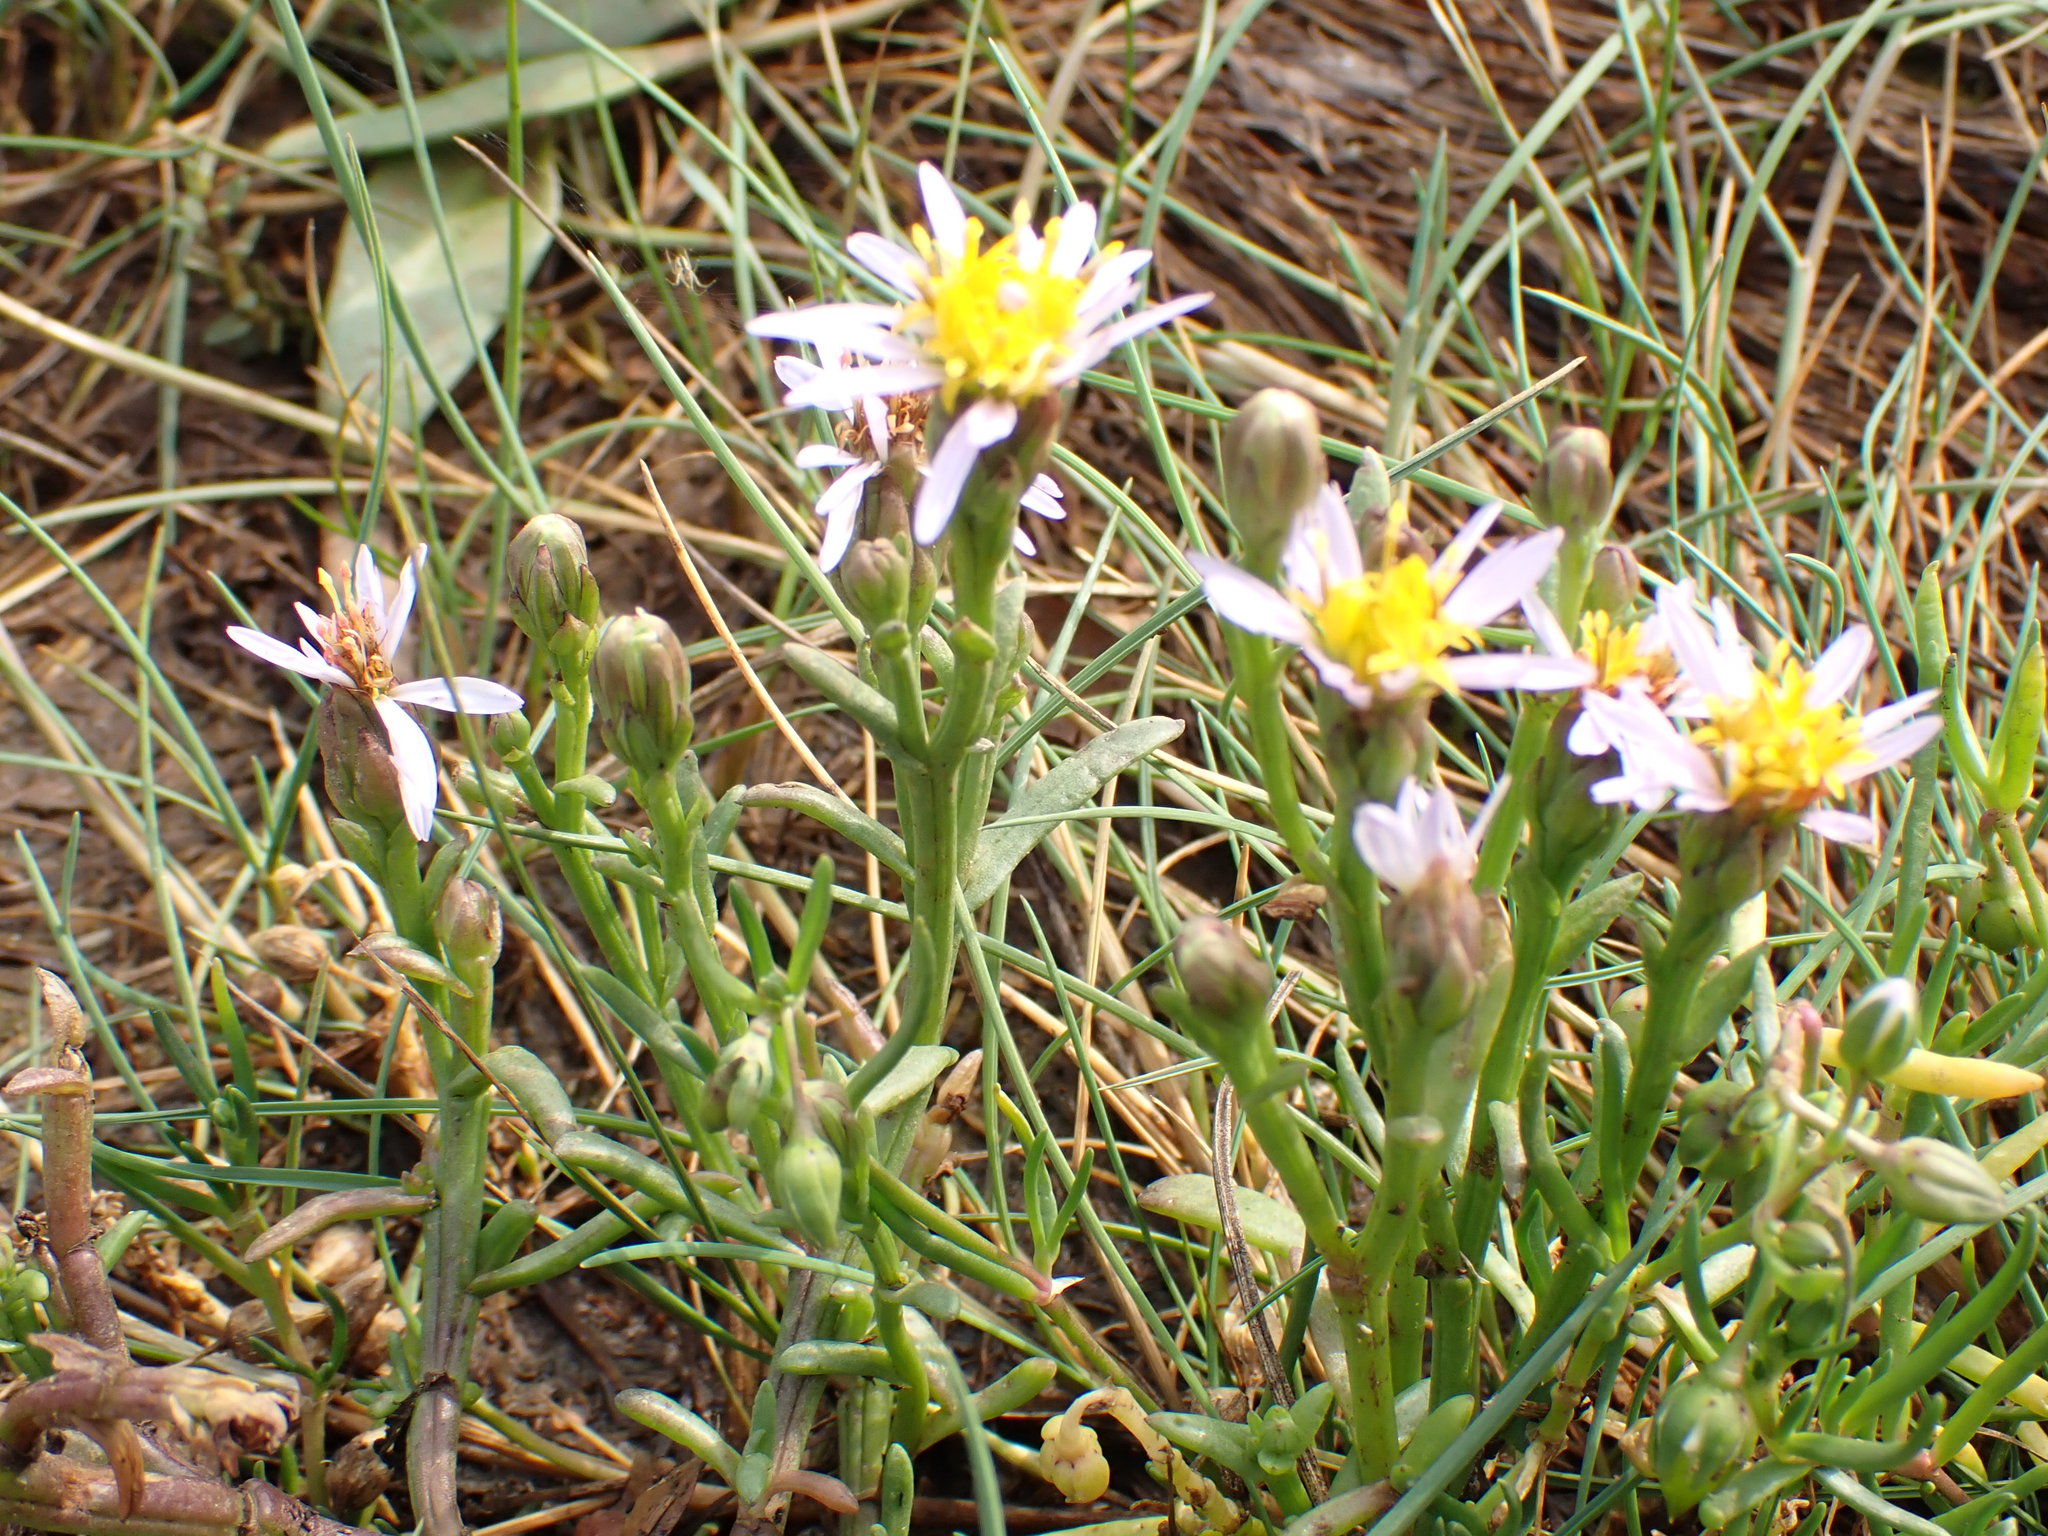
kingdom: Plantae
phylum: Tracheophyta
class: Magnoliopsida
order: Asterales
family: Asteraceae
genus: Tripolium
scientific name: Tripolium pannonicum
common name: Sea aster
